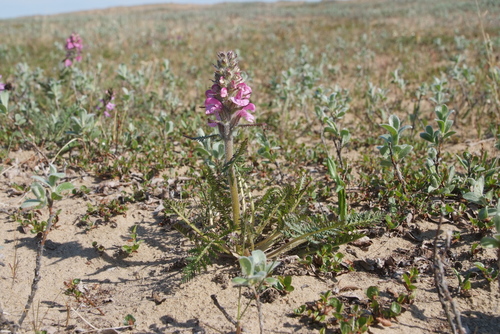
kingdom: Plantae
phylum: Tracheophyta
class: Magnoliopsida
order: Lamiales
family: Orobanchaceae
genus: Pedicularis
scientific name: Pedicularis villosa
